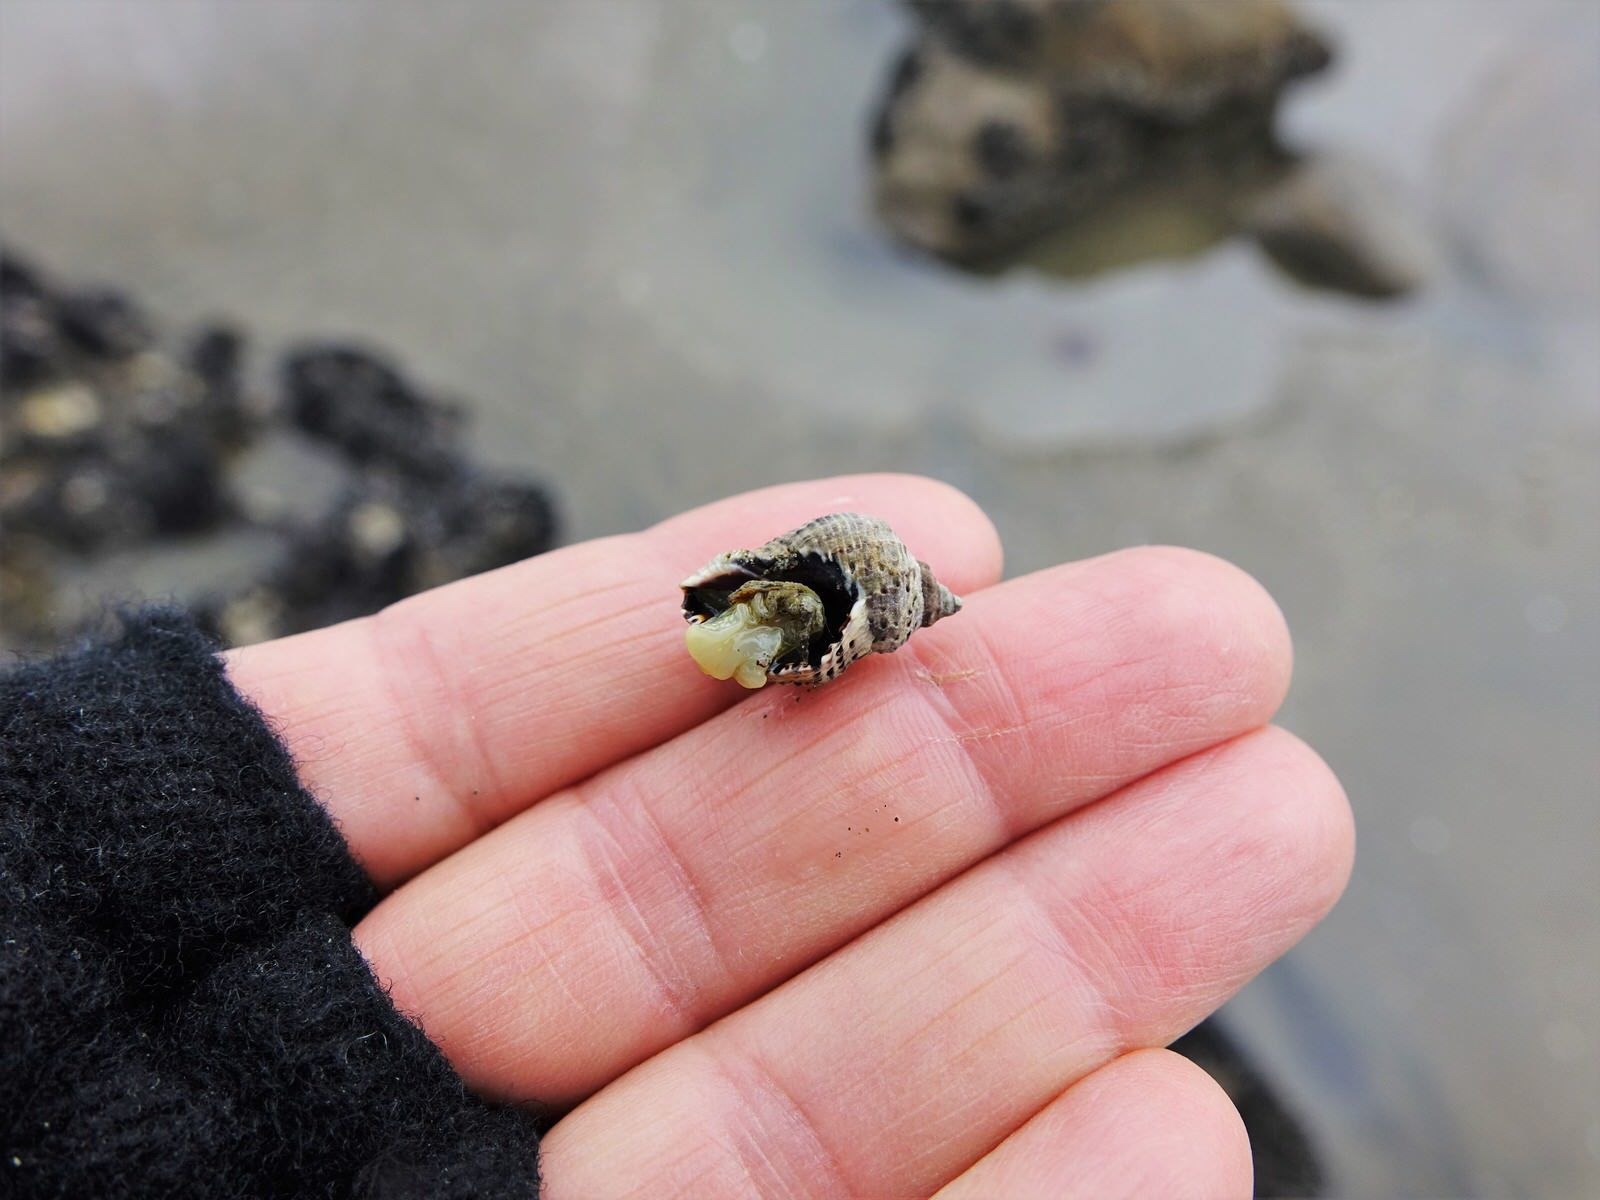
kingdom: Animalia
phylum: Mollusca
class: Gastropoda
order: Neogastropoda
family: Muricidae
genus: Haustrum
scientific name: Haustrum scobina
